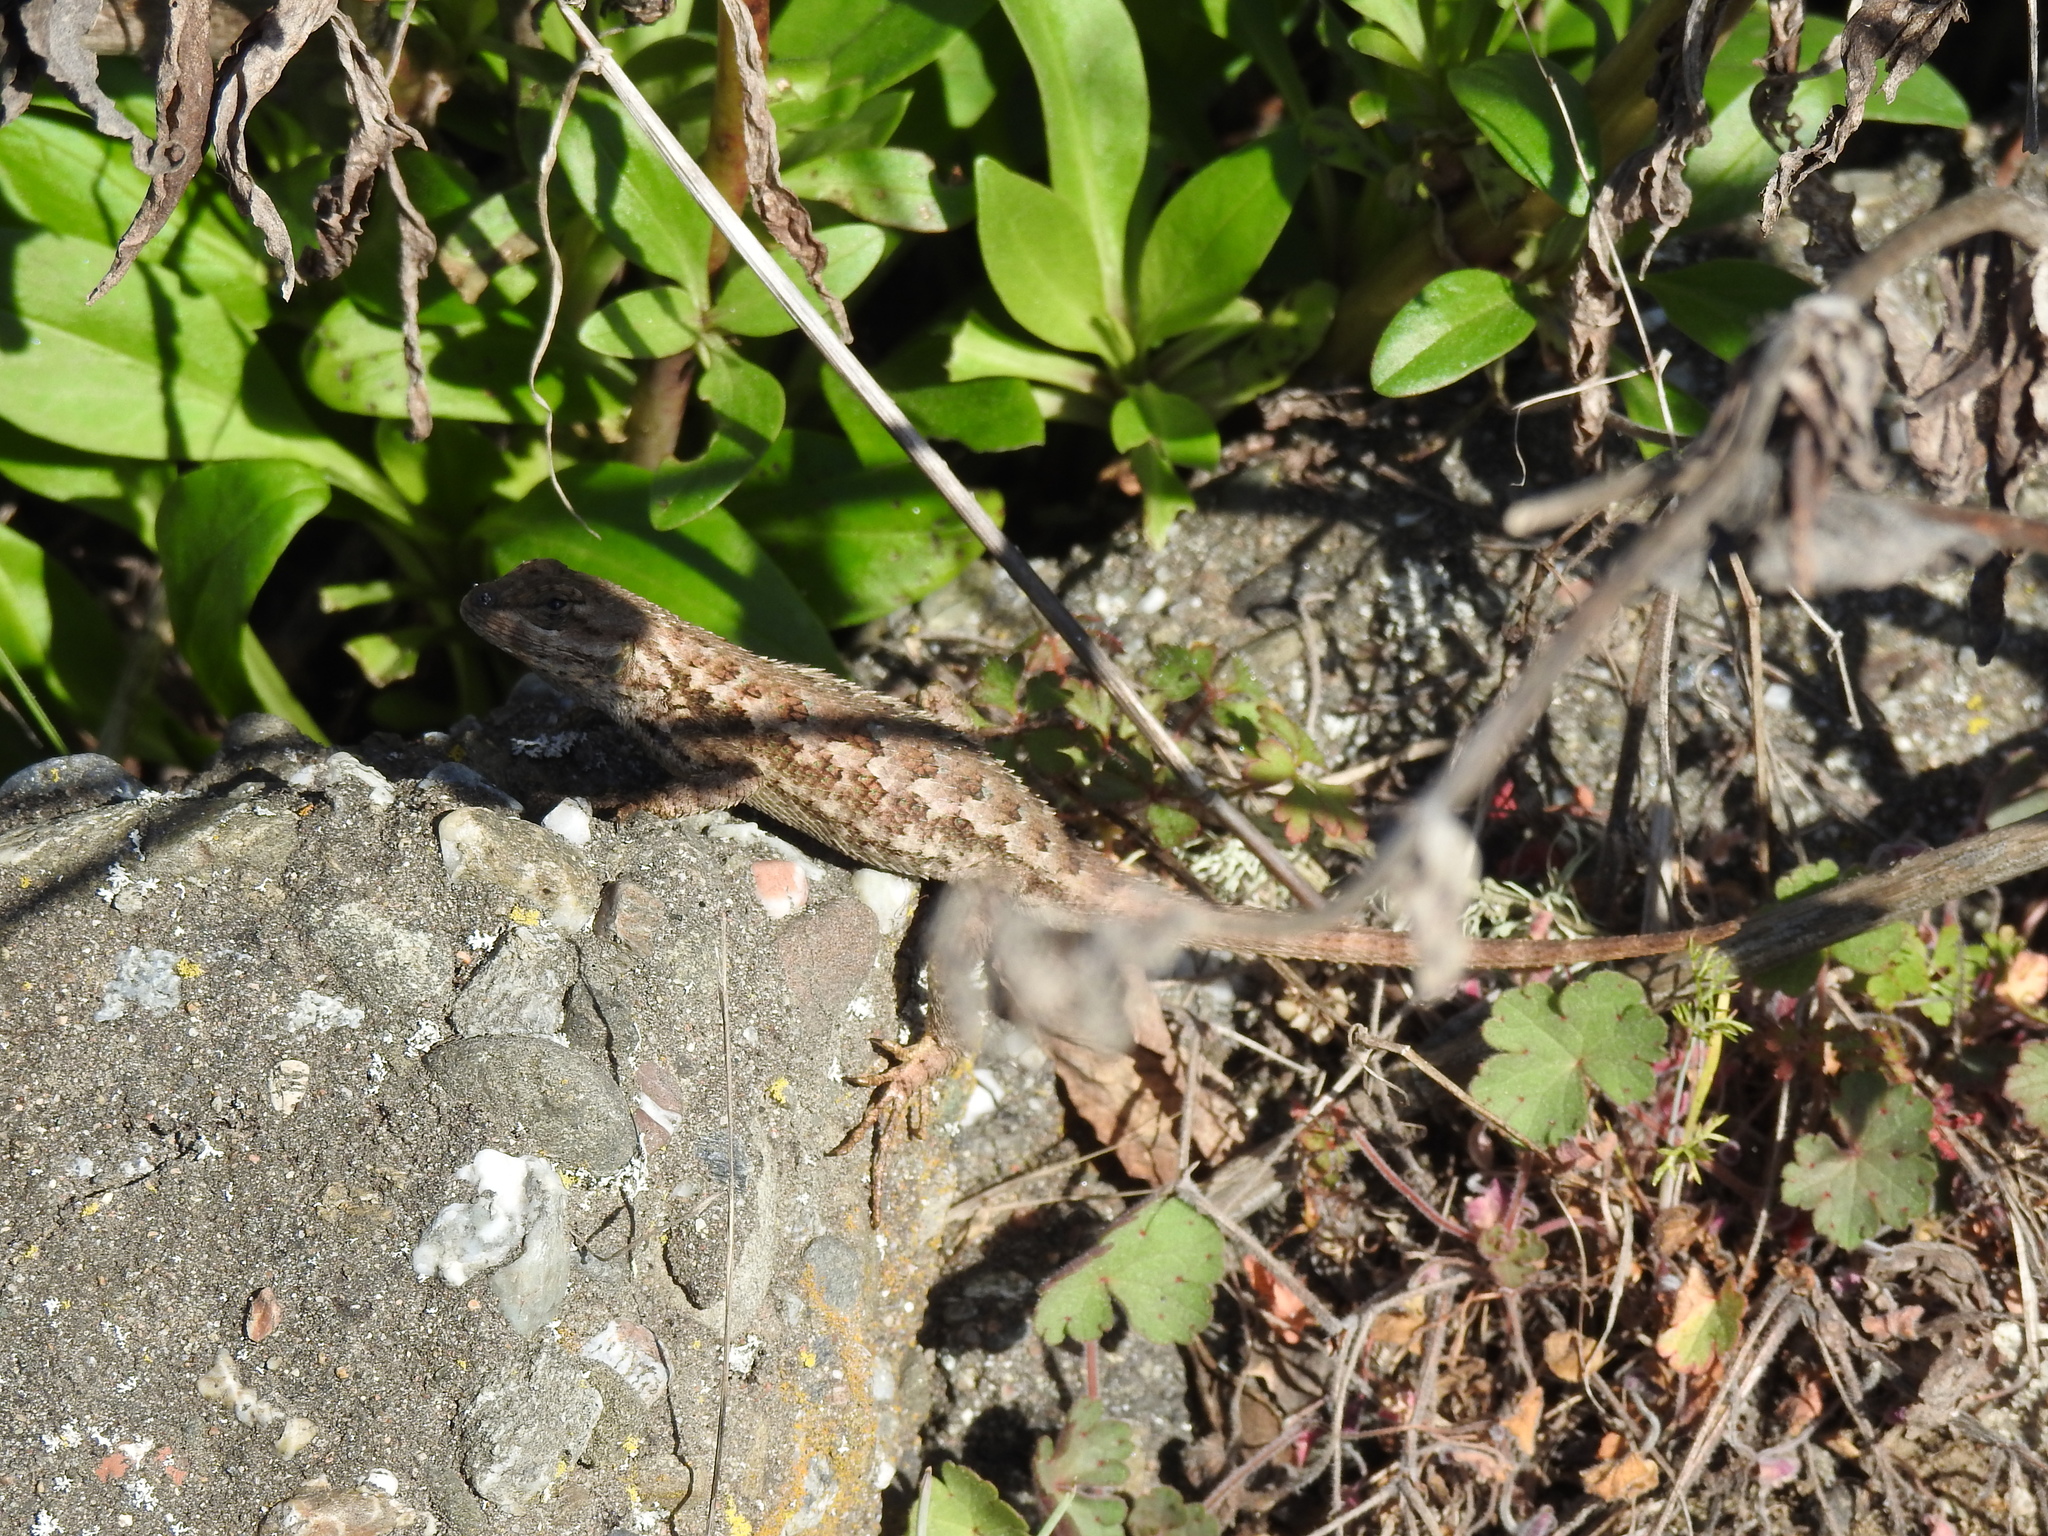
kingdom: Animalia
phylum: Chordata
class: Squamata
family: Phrynosomatidae
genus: Sceloporus
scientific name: Sceloporus occidentalis
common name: Western fence lizard
